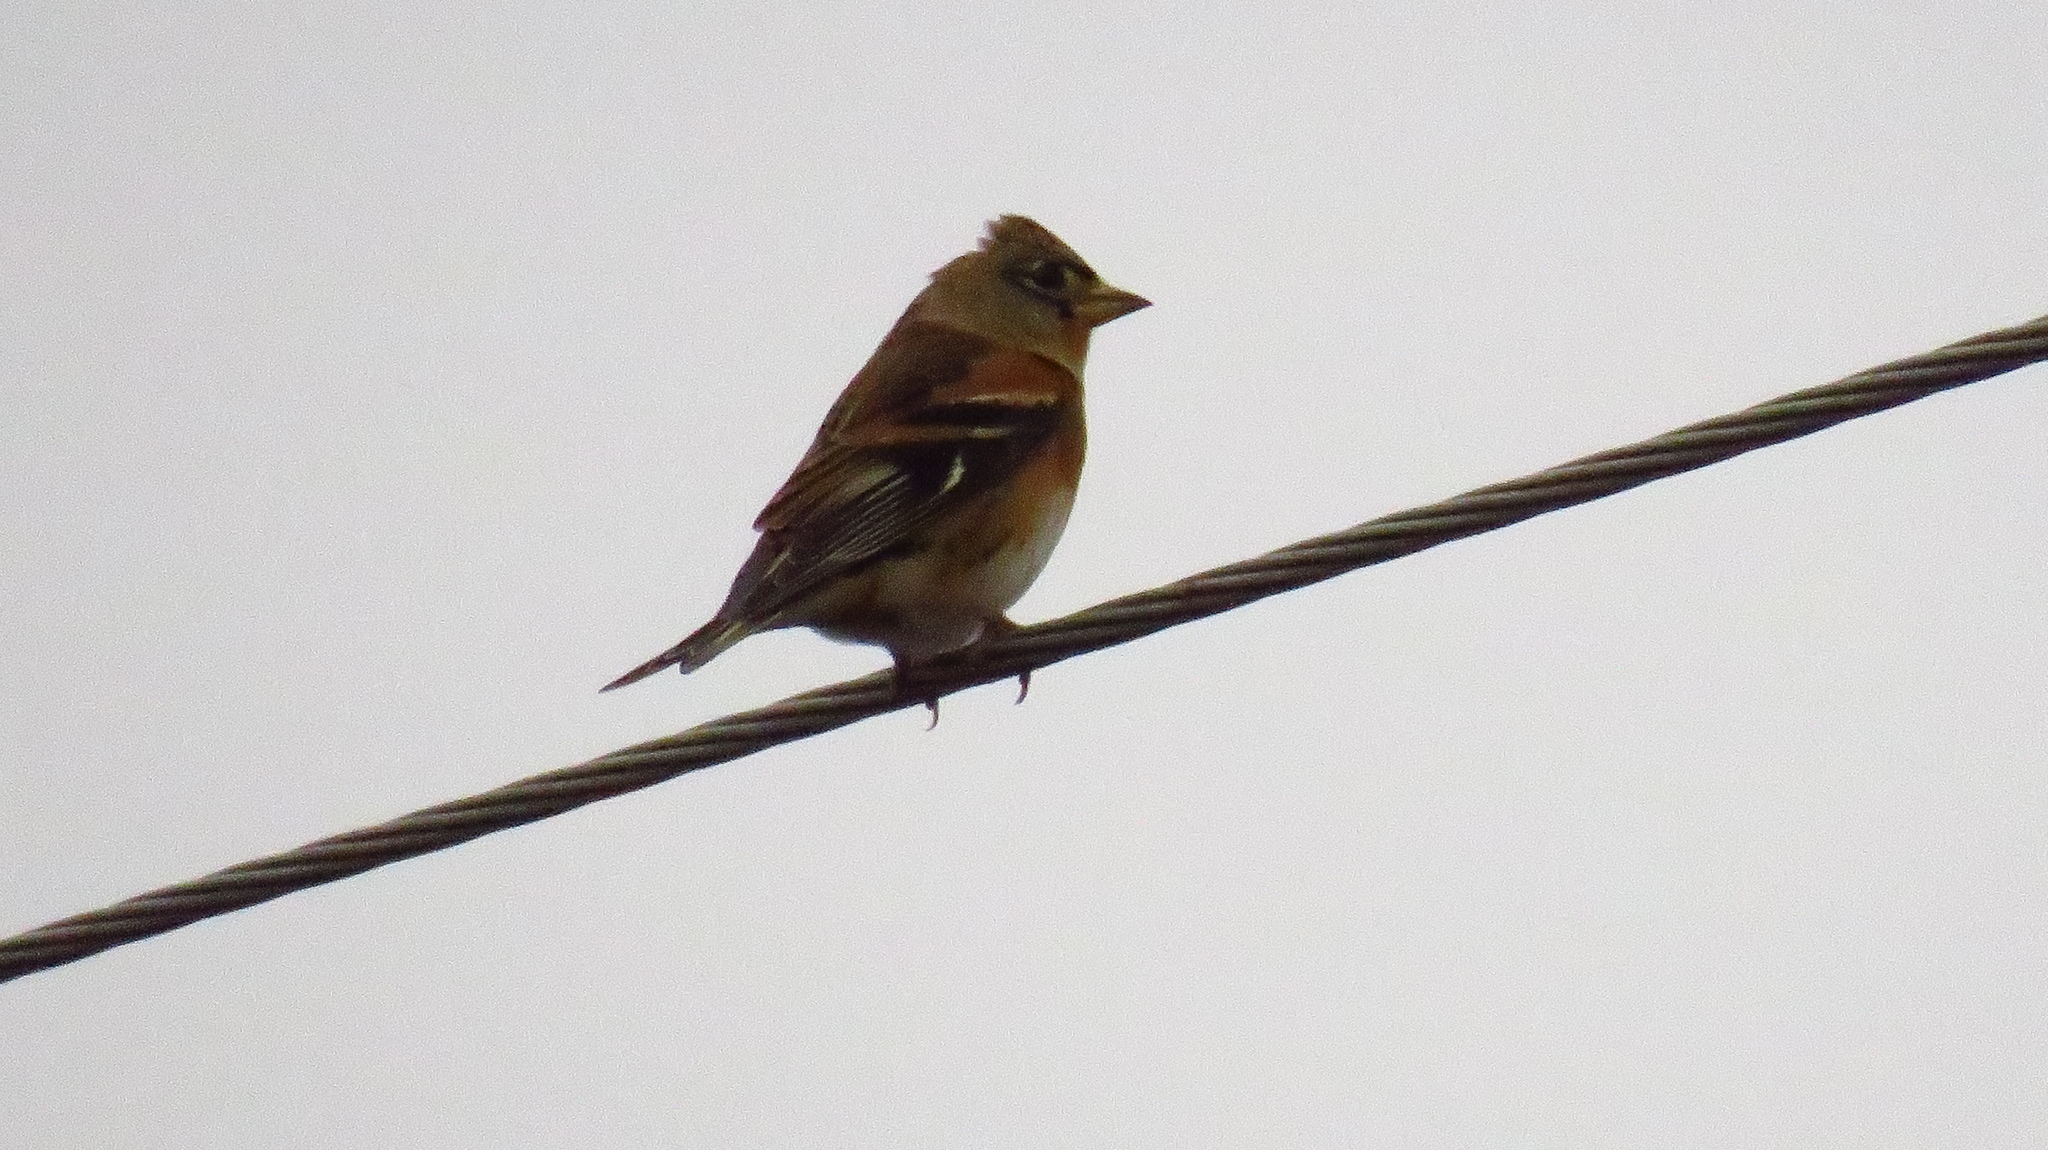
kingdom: Animalia
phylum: Chordata
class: Aves
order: Passeriformes
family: Fringillidae
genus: Fringilla
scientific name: Fringilla montifringilla
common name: Brambling
